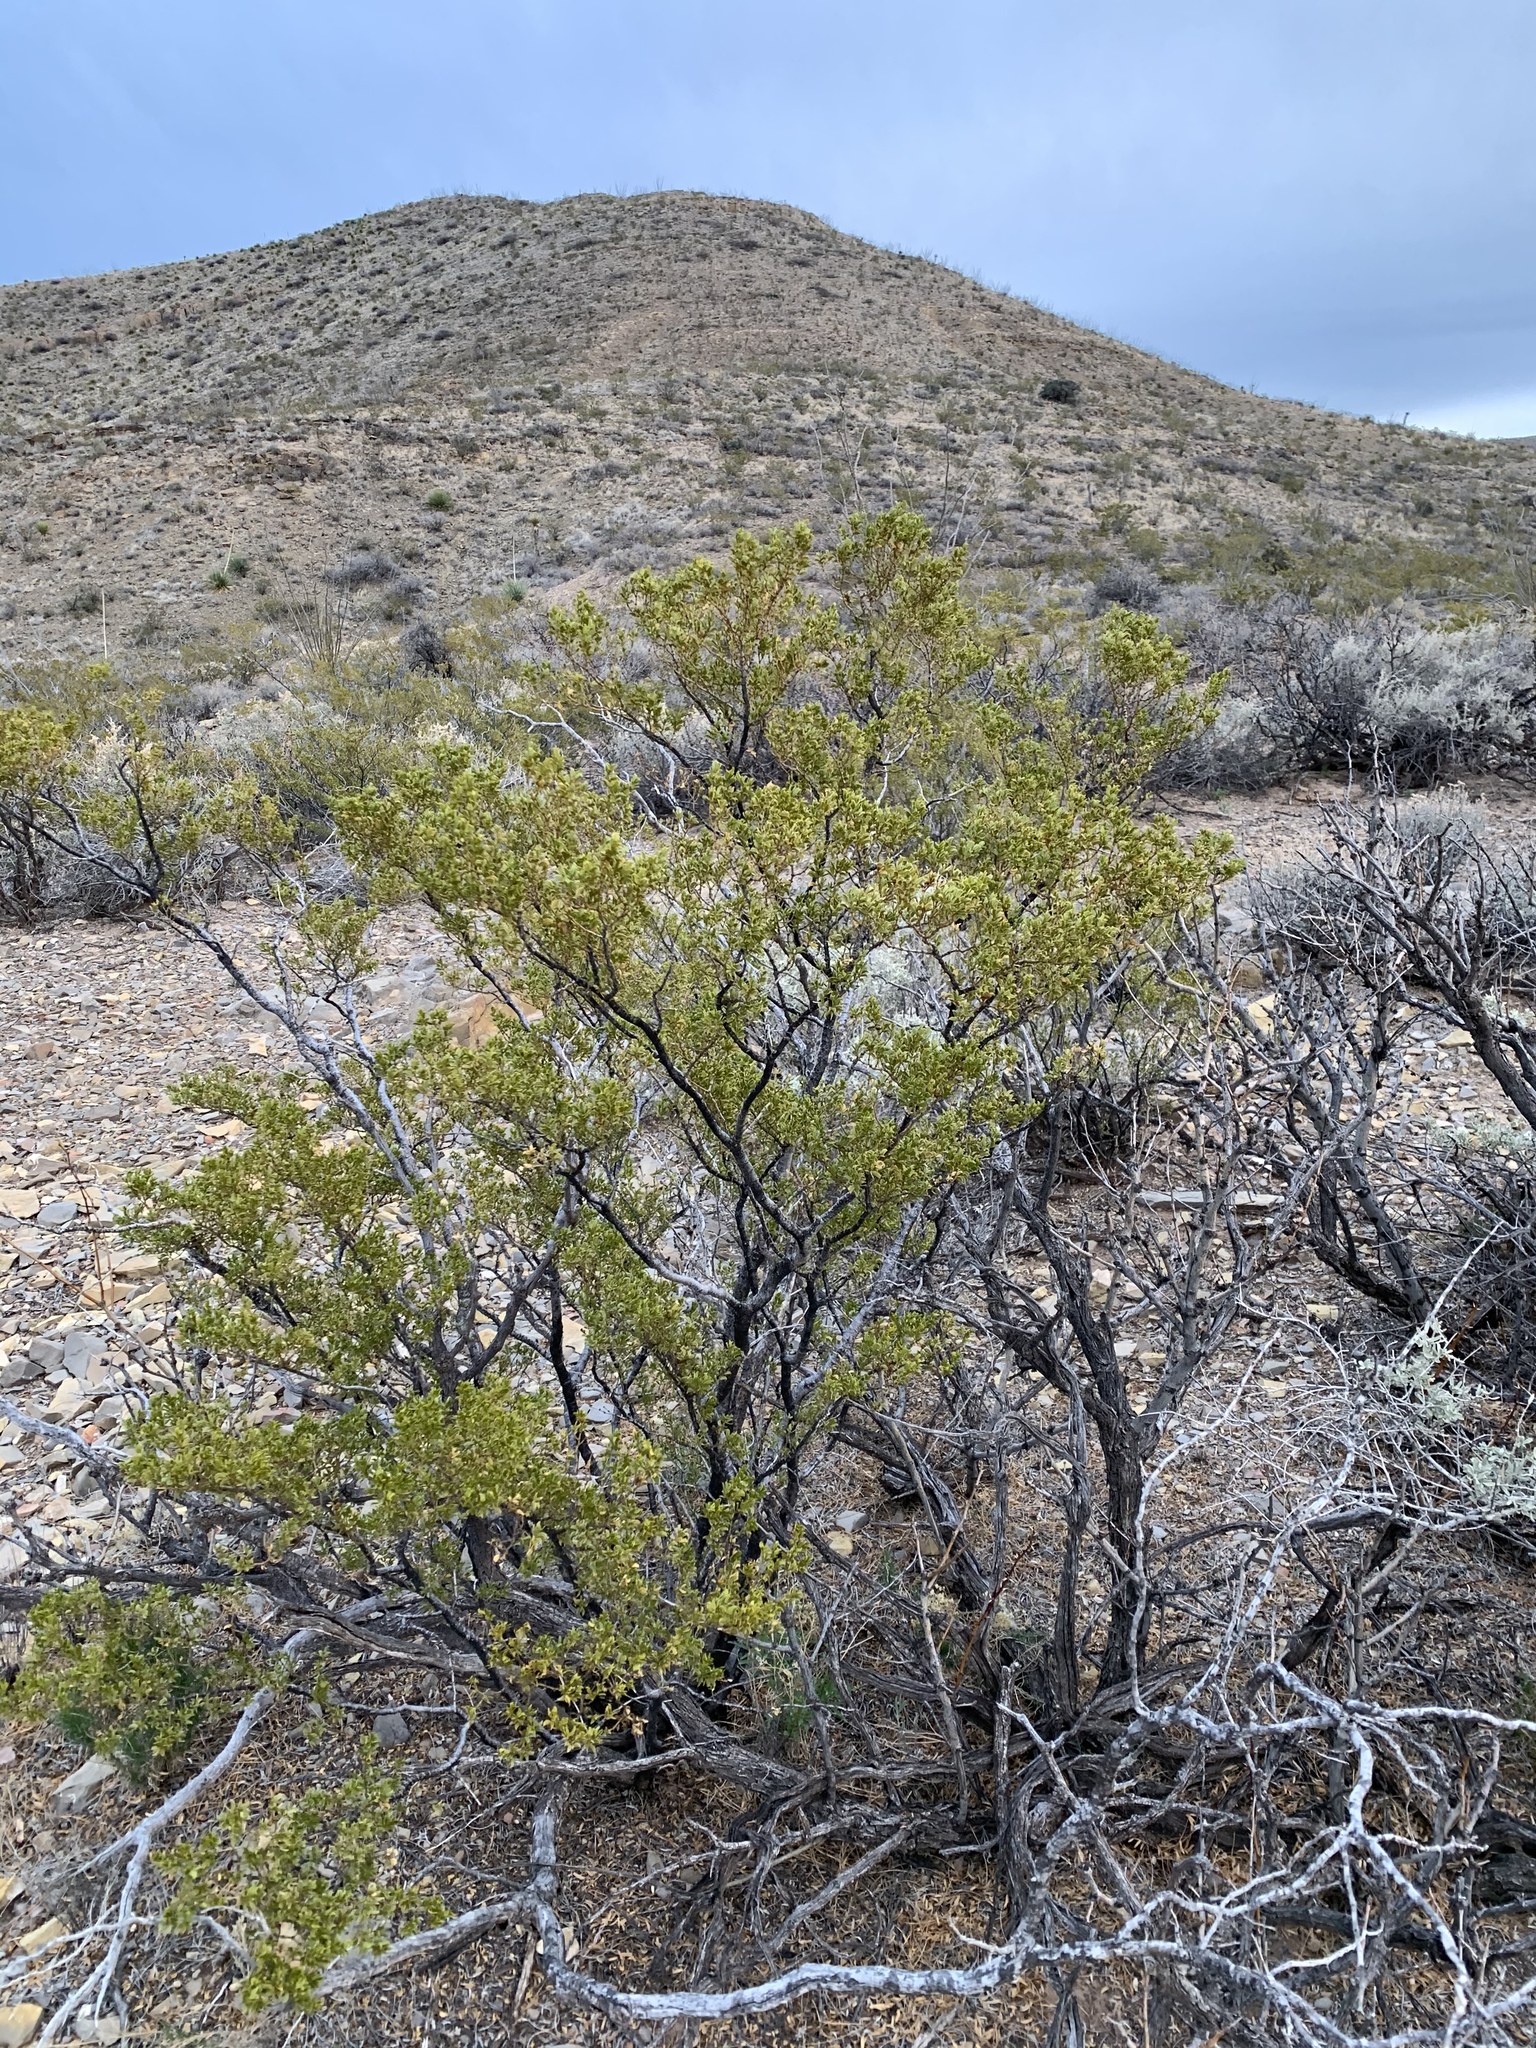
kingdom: Plantae
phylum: Tracheophyta
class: Magnoliopsida
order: Zygophyllales
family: Zygophyllaceae
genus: Larrea
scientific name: Larrea tridentata
